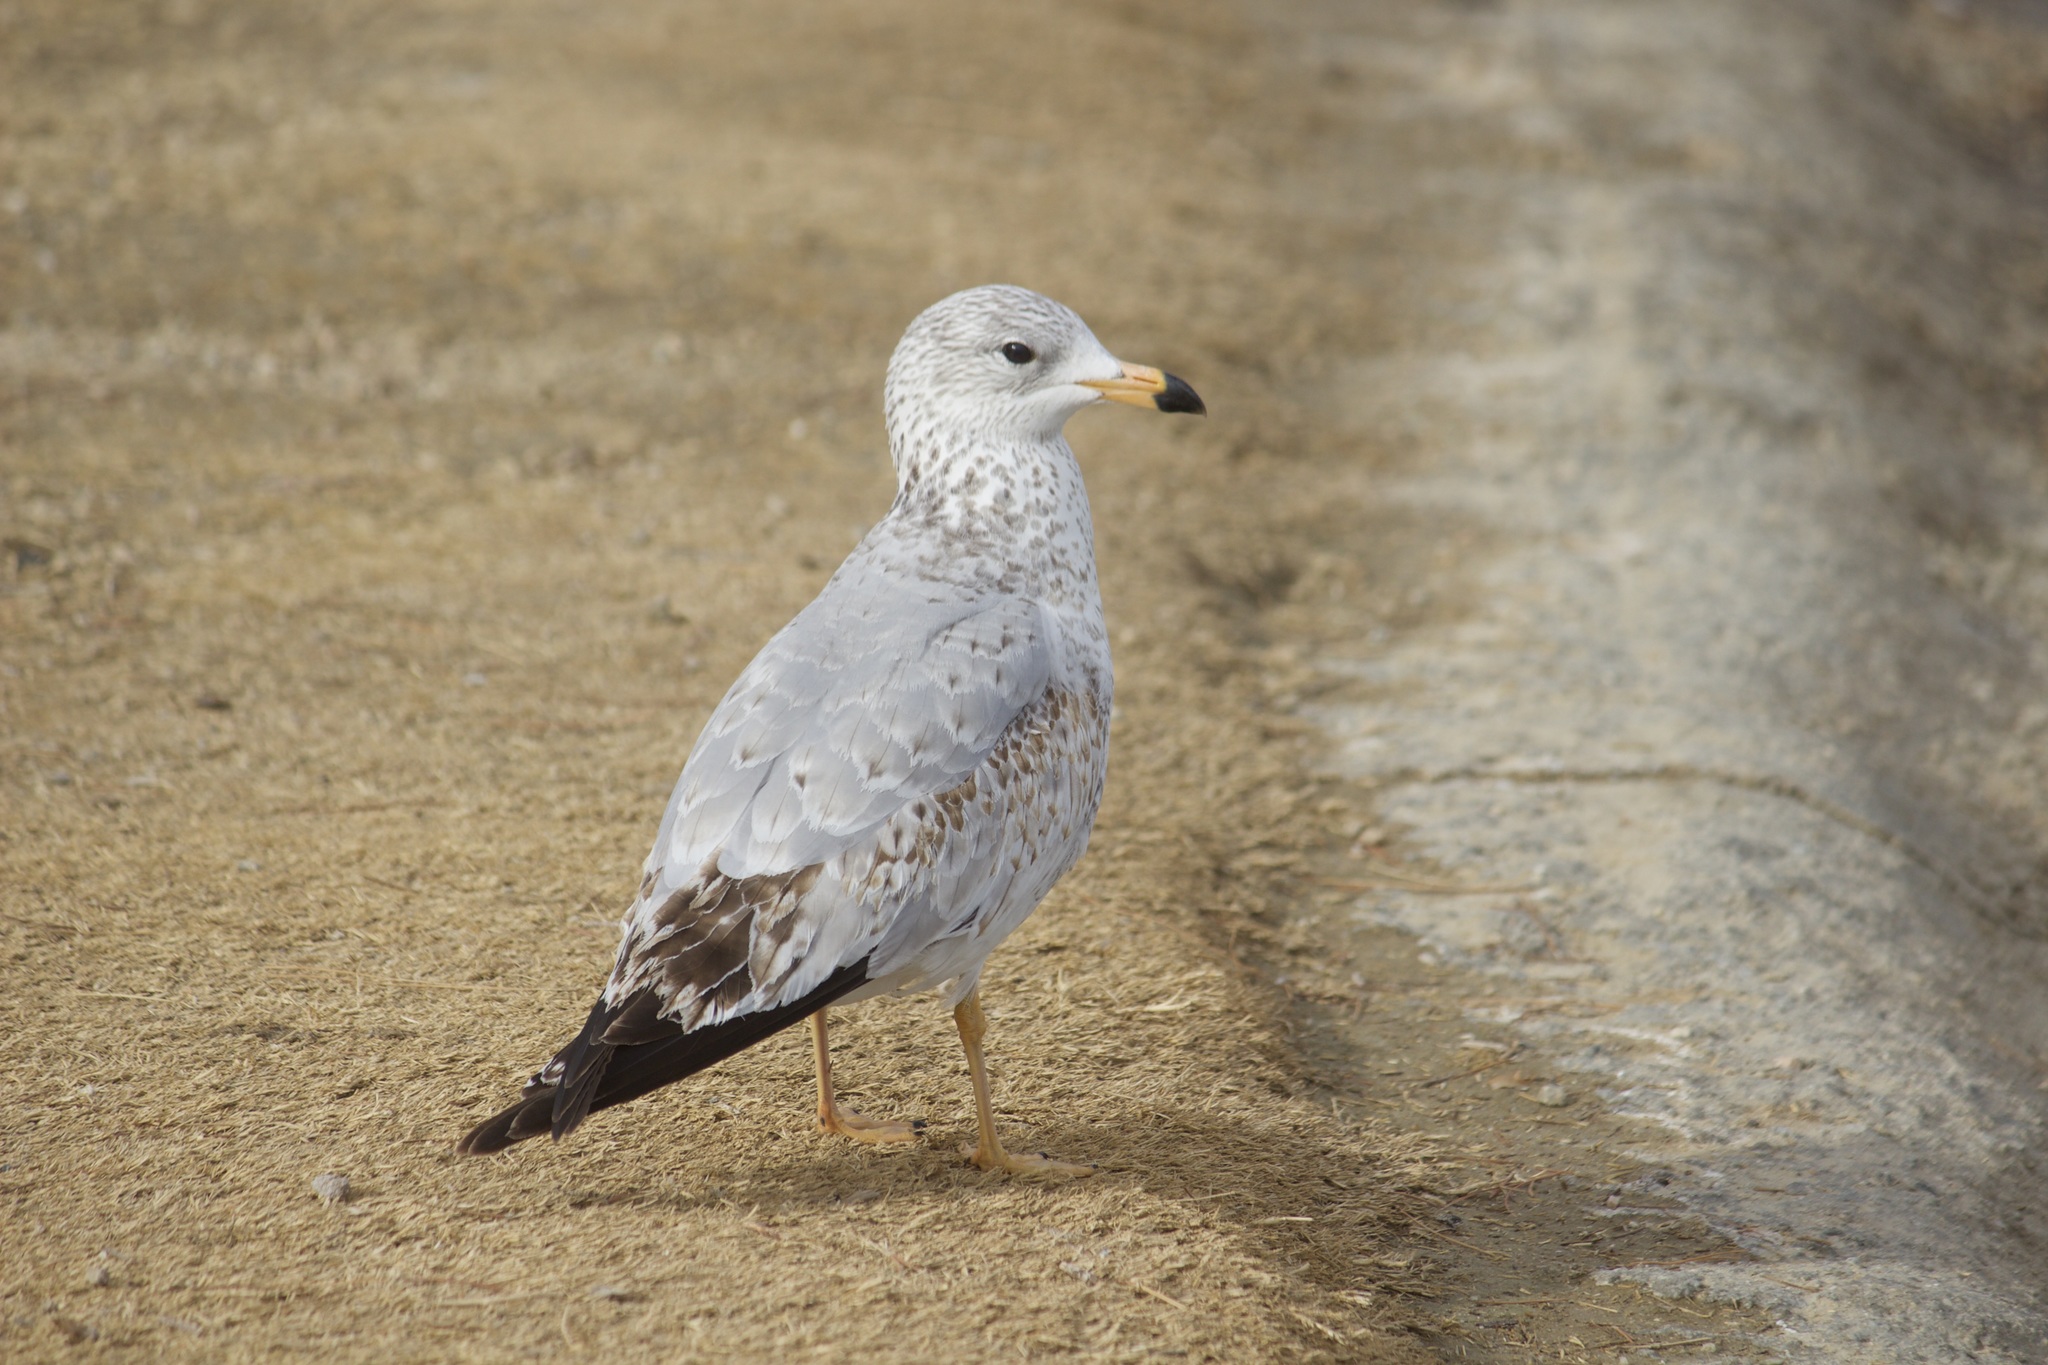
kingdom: Animalia
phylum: Chordata
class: Aves
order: Charadriiformes
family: Laridae
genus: Larus
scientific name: Larus delawarensis
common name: Ring-billed gull
